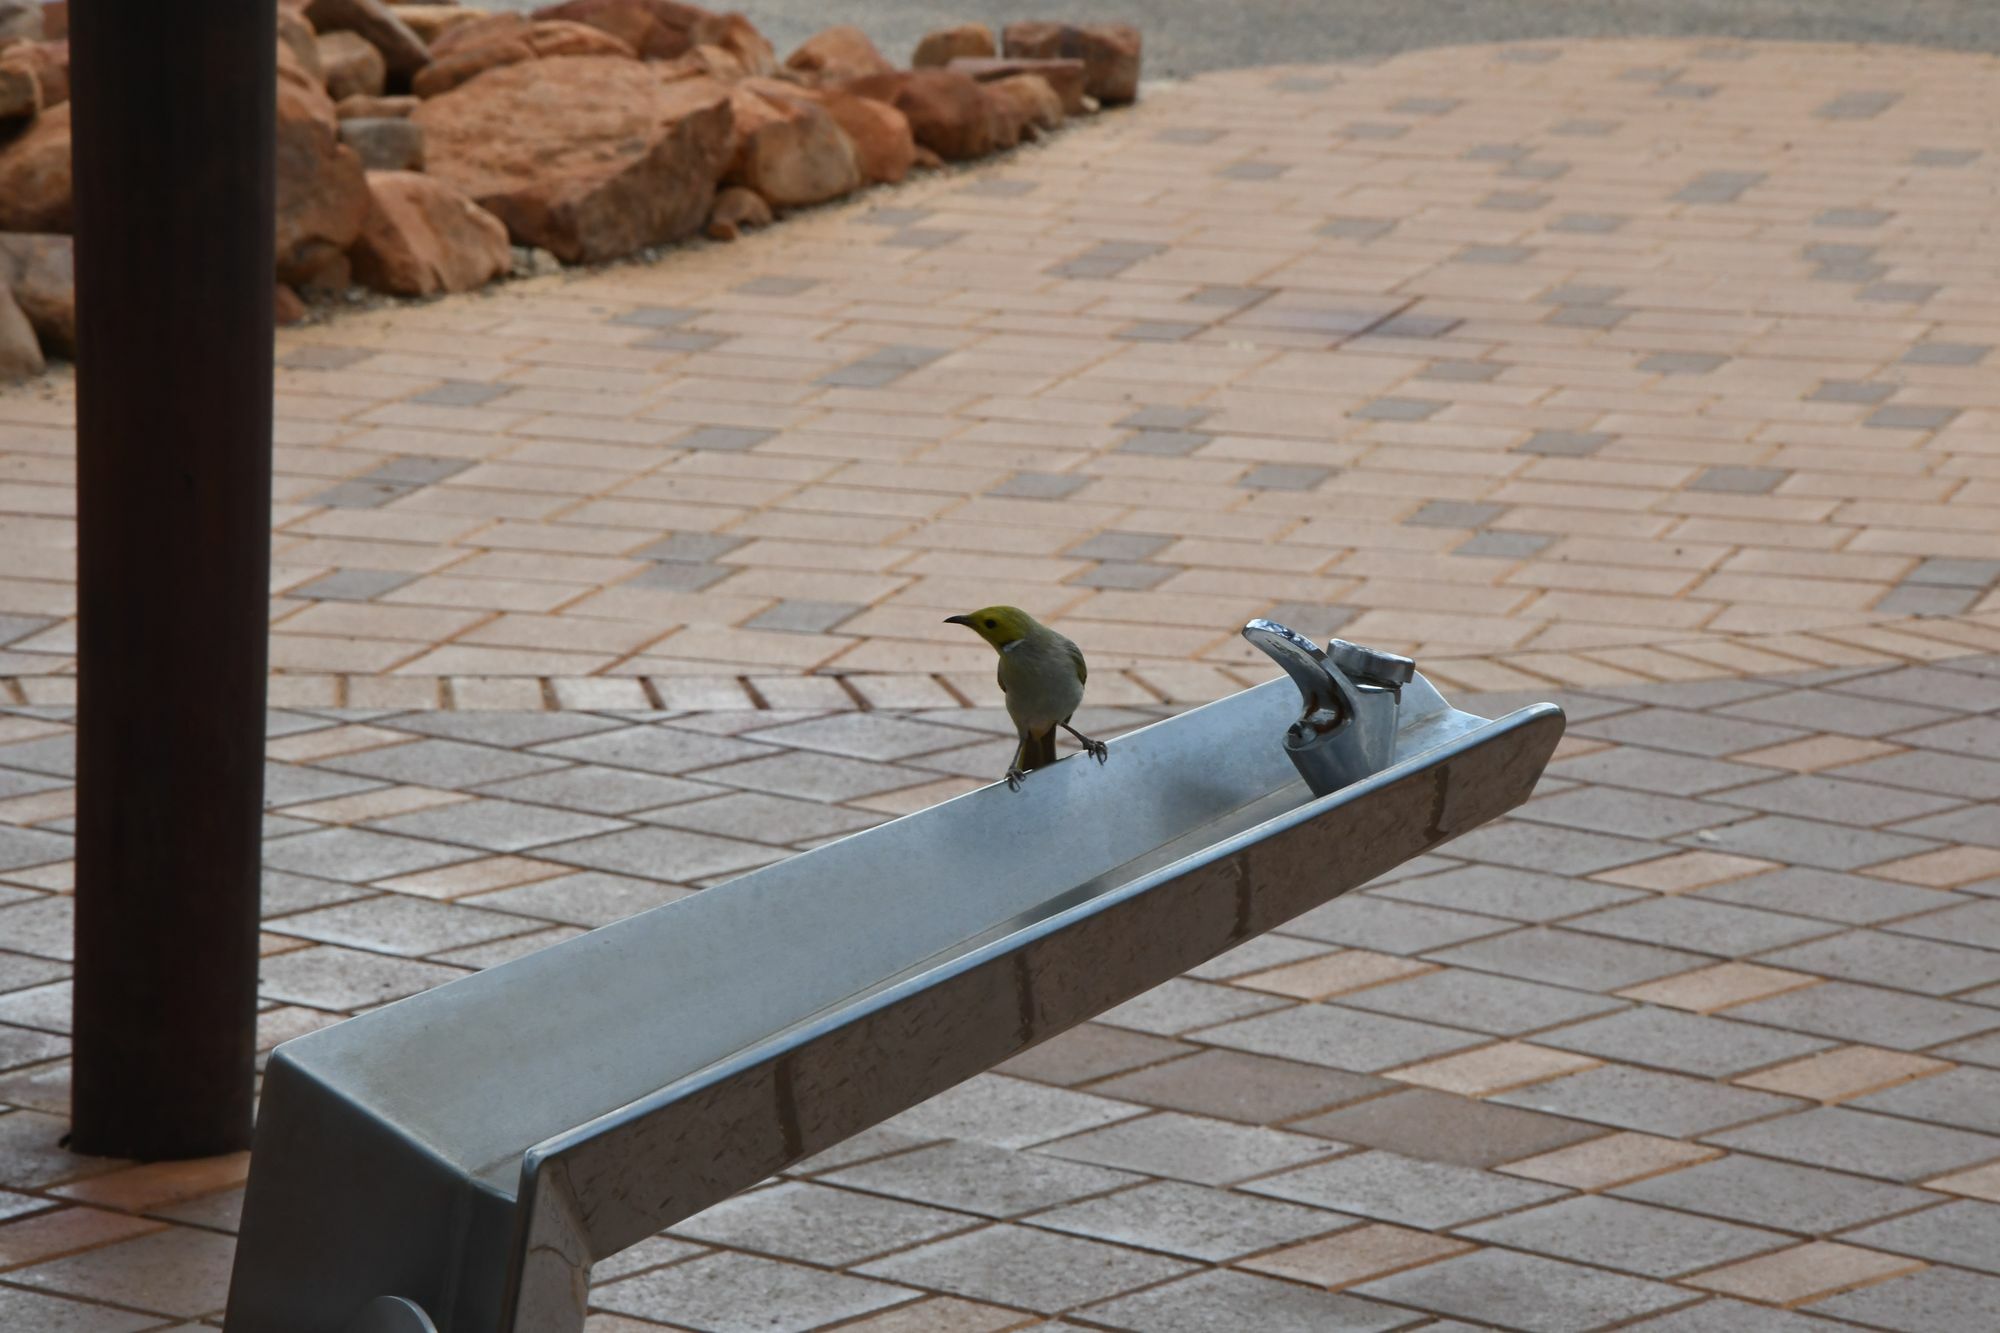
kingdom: Animalia
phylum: Chordata
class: Aves
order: Passeriformes
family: Meliphagidae
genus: Ptilotula
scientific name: Ptilotula penicillata
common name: White-plumed honeyeater
